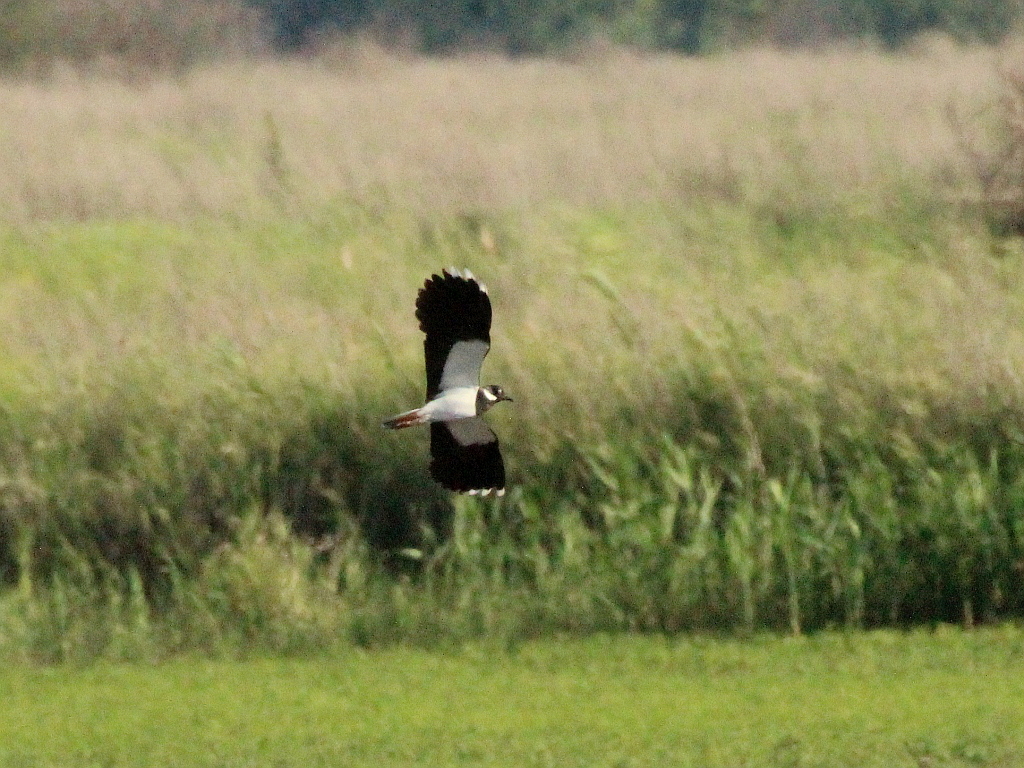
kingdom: Animalia
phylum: Chordata
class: Aves
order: Charadriiformes
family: Charadriidae
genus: Vanellus
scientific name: Vanellus vanellus
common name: Northern lapwing
